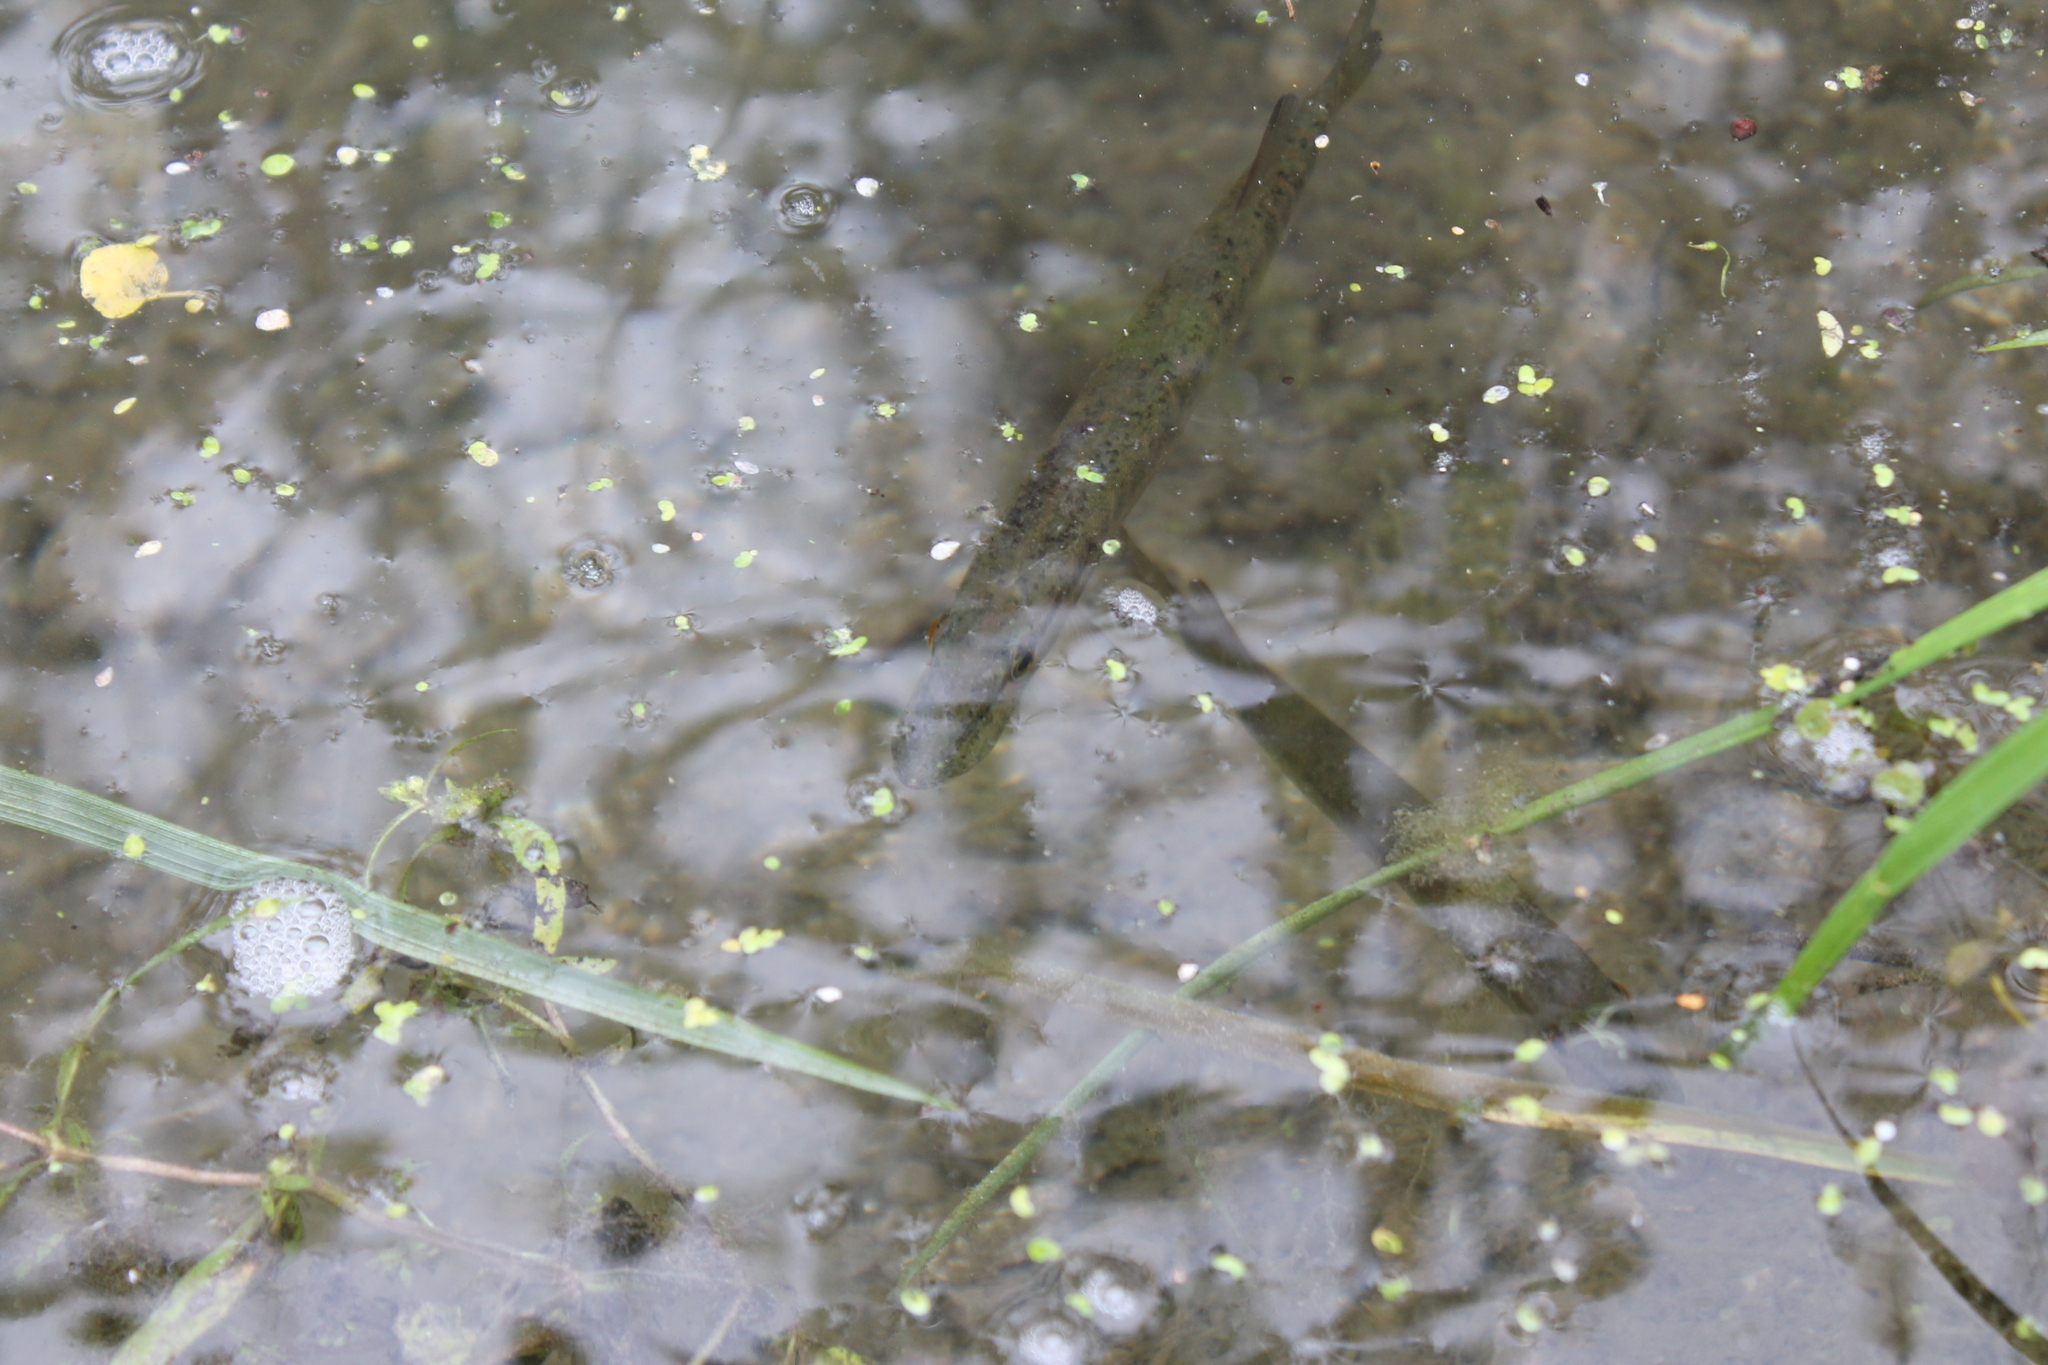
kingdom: Animalia
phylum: Chordata
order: Esociformes
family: Esocidae
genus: Esox
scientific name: Esox americanus
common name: Redfin pickerel
